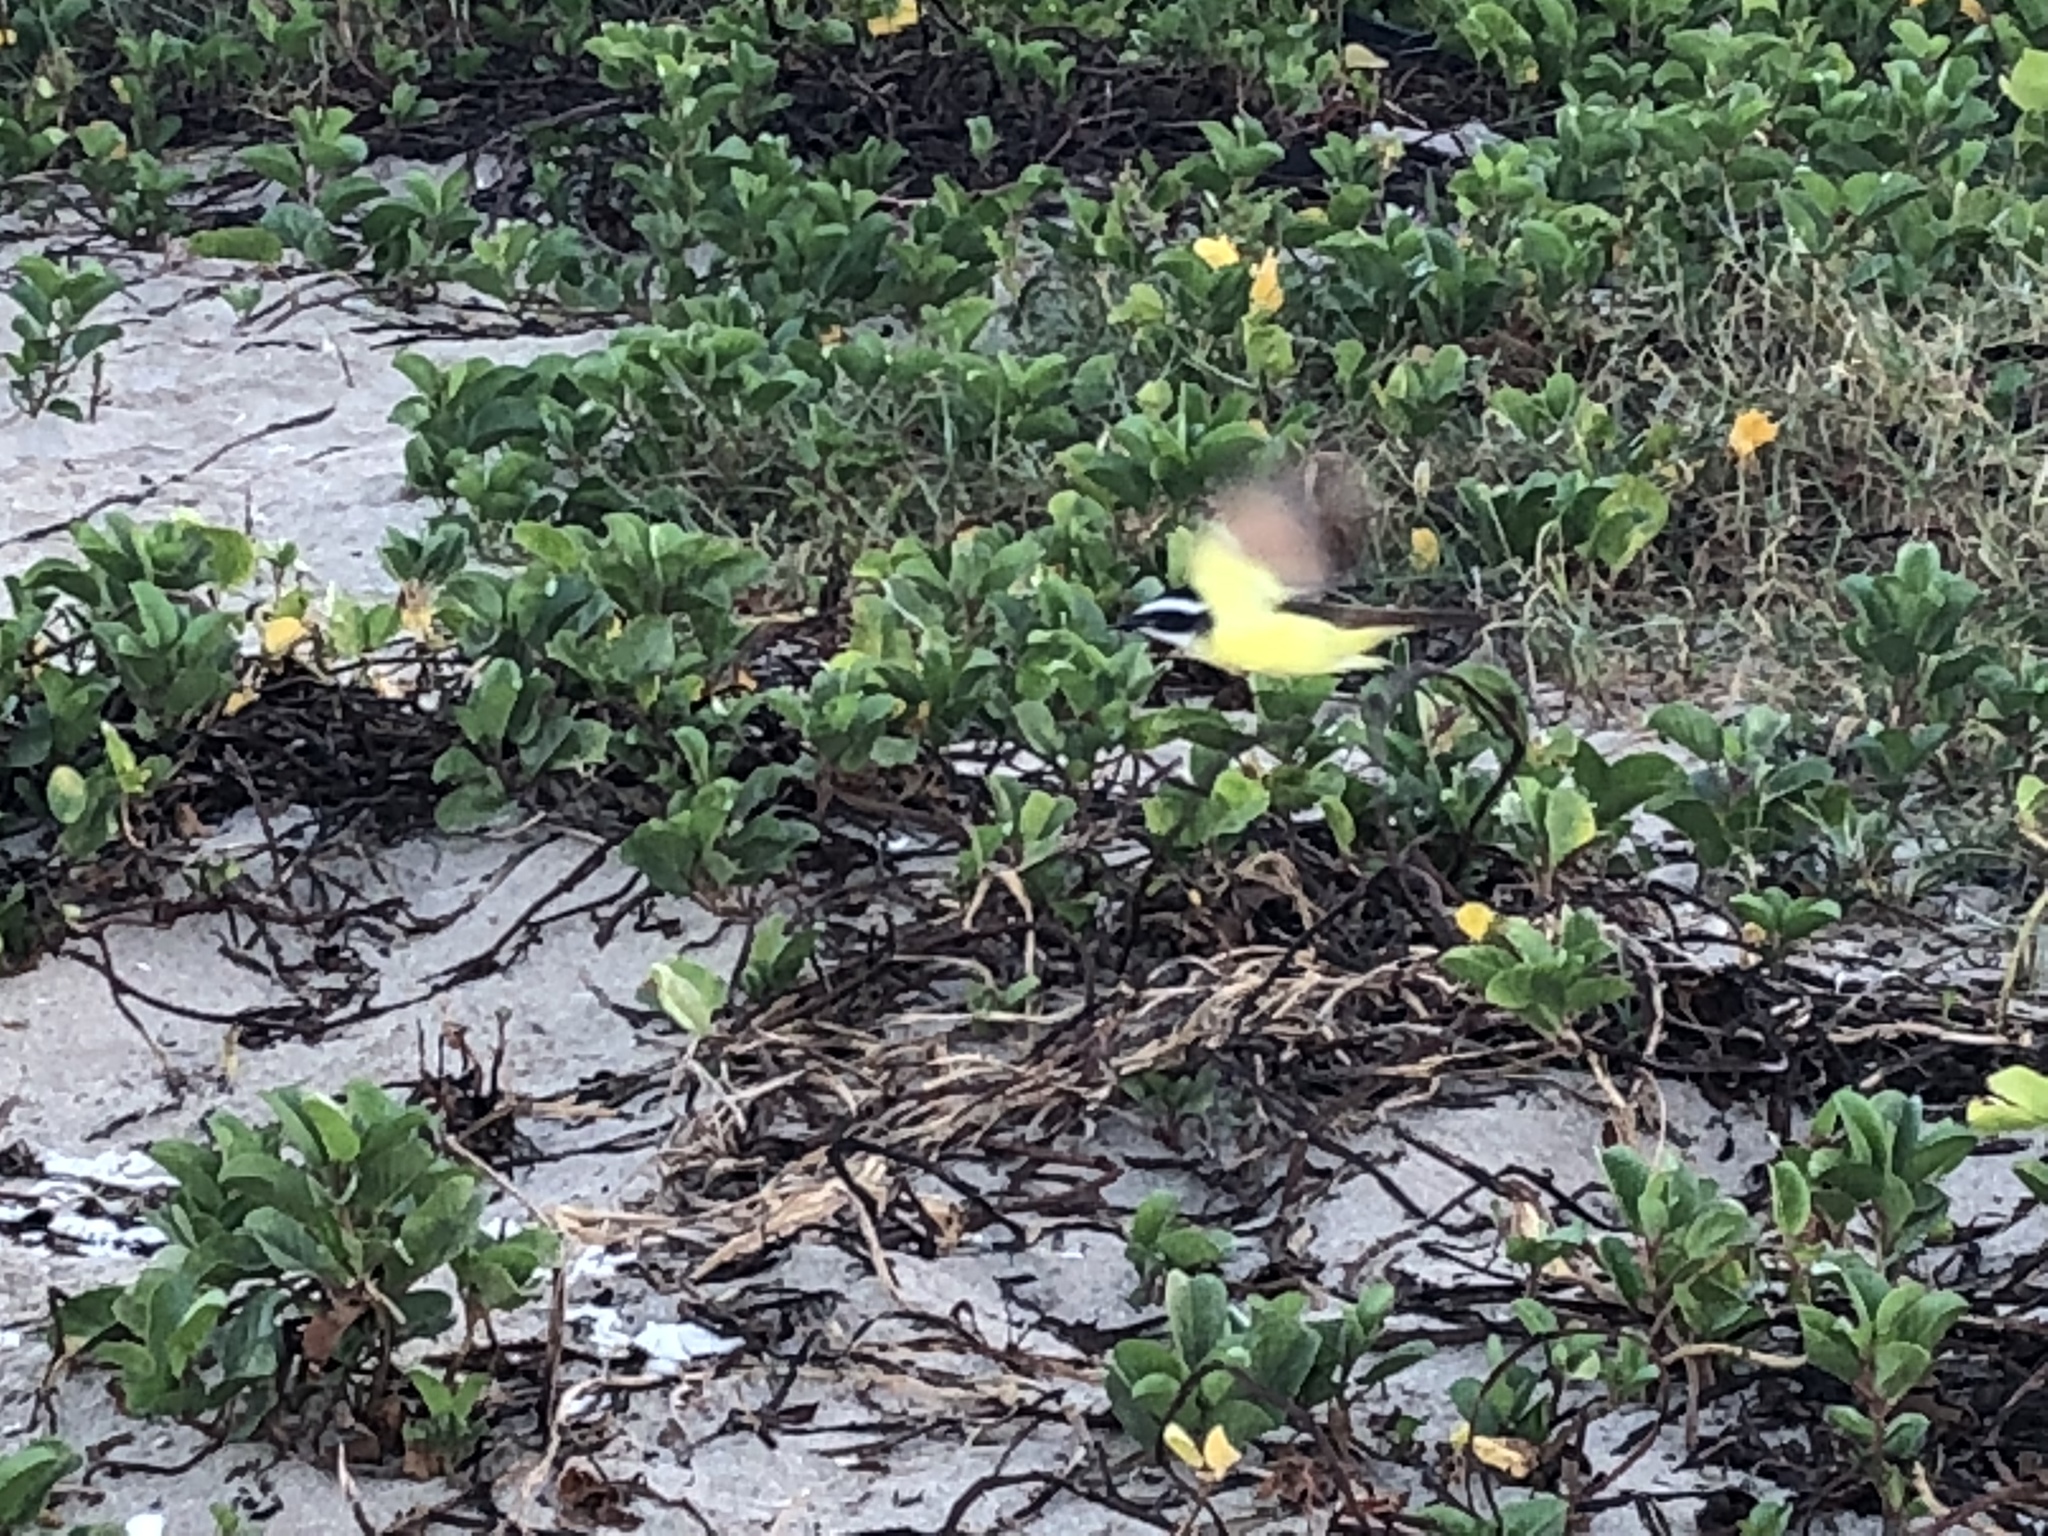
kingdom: Animalia
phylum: Chordata
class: Aves
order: Passeriformes
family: Tyrannidae
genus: Pitangus
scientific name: Pitangus sulphuratus
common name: Great kiskadee
